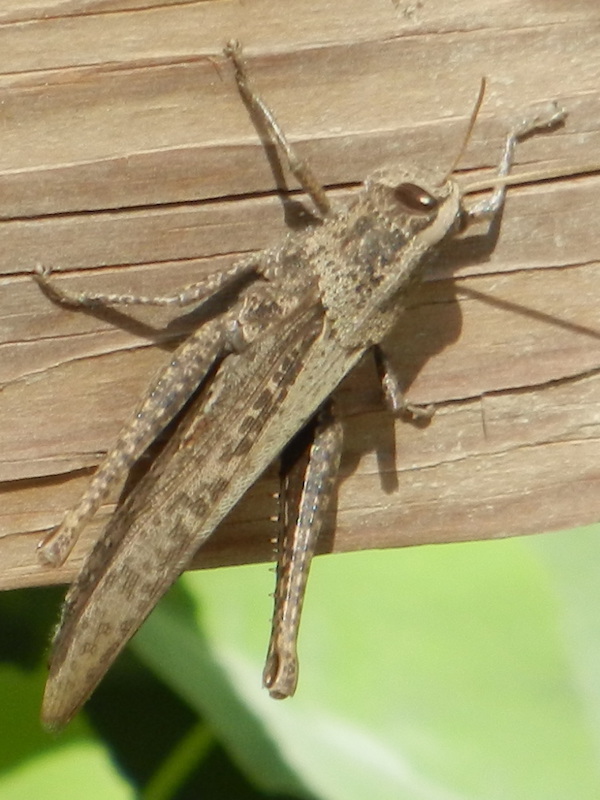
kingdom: Animalia
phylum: Arthropoda
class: Insecta
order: Orthoptera
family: Acrididae
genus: Schistocerca
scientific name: Schistocerca impleta
